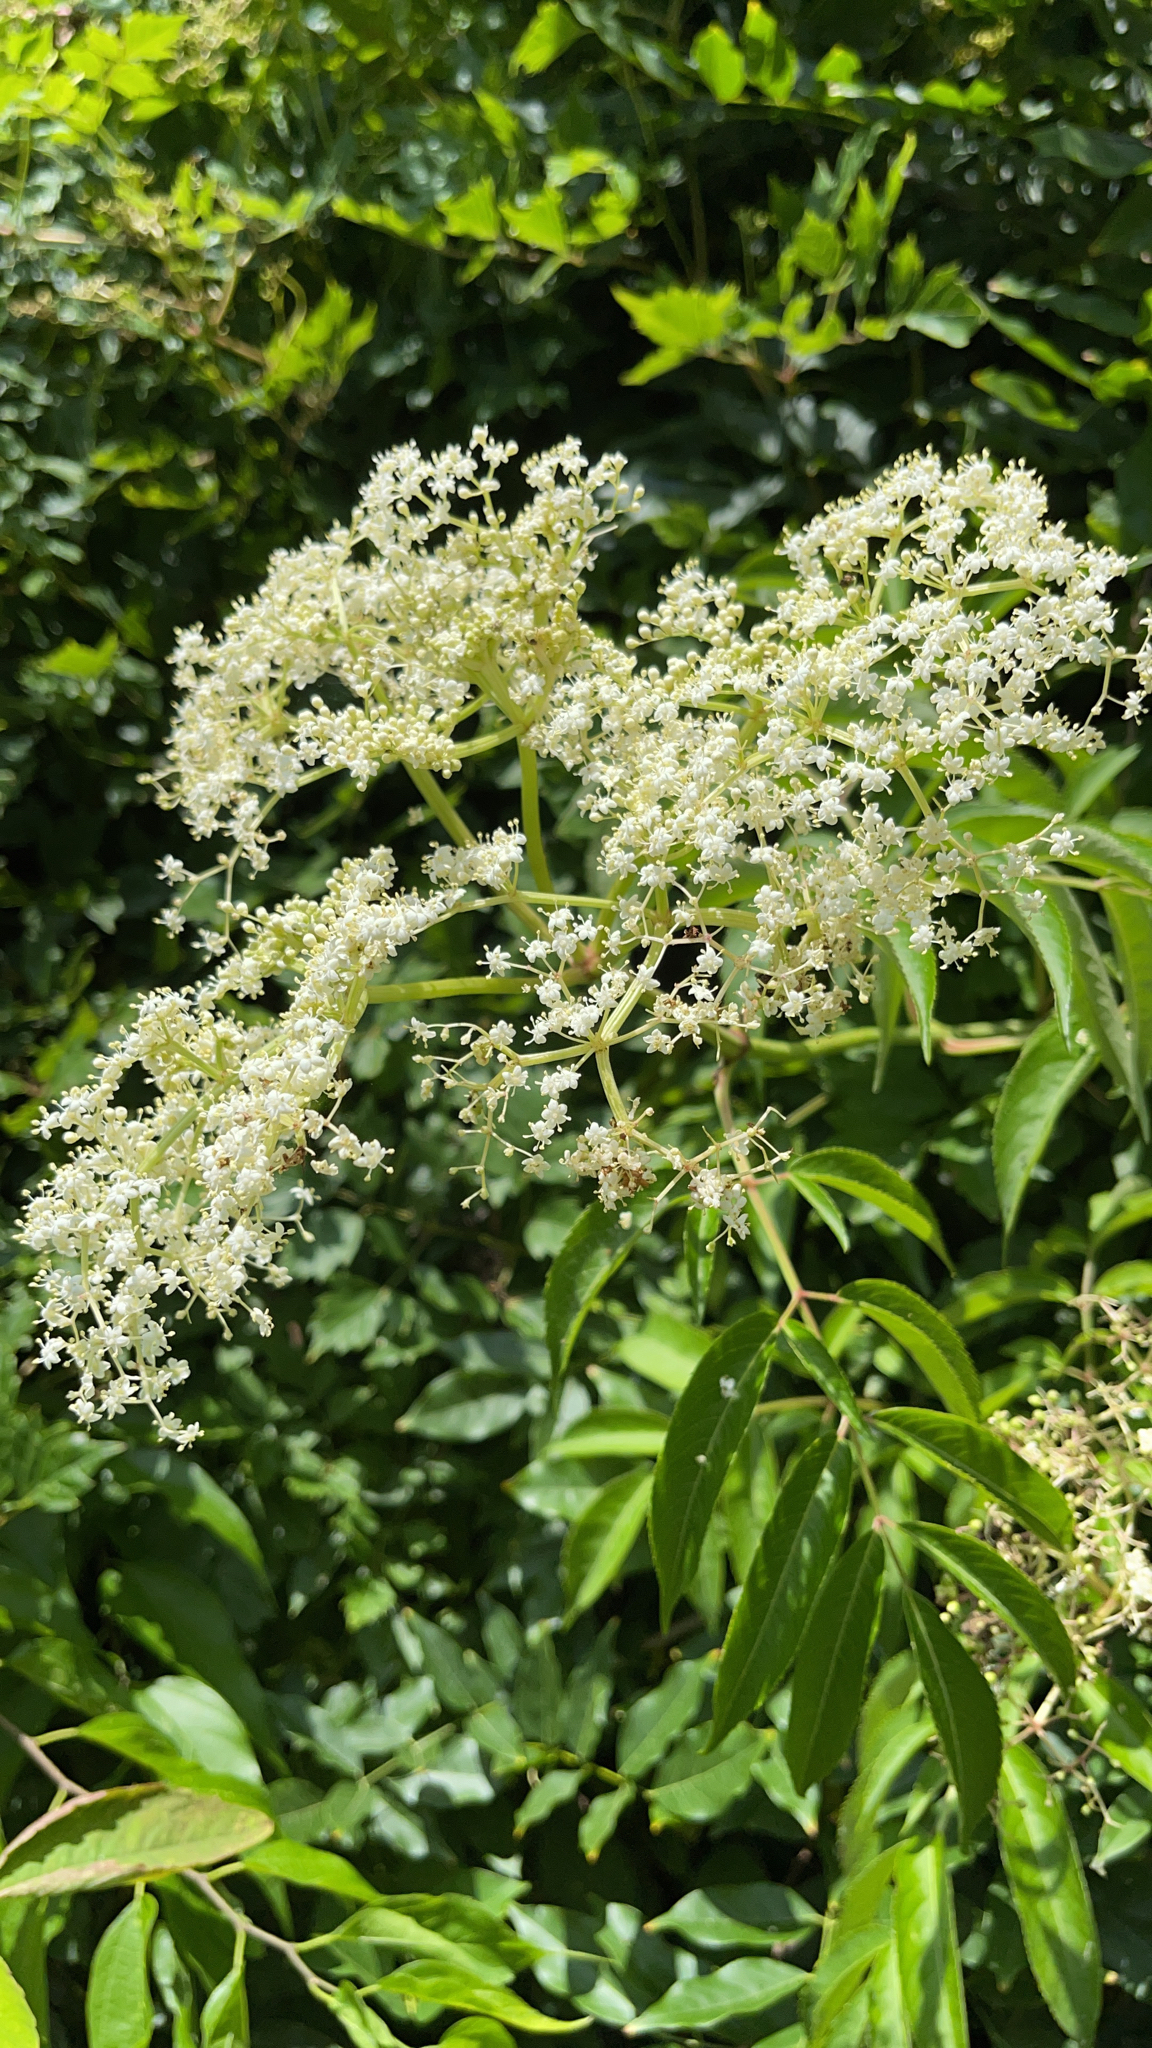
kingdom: Plantae
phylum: Tracheophyta
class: Magnoliopsida
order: Dipsacales
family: Viburnaceae
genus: Sambucus
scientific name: Sambucus canadensis
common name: American elder
